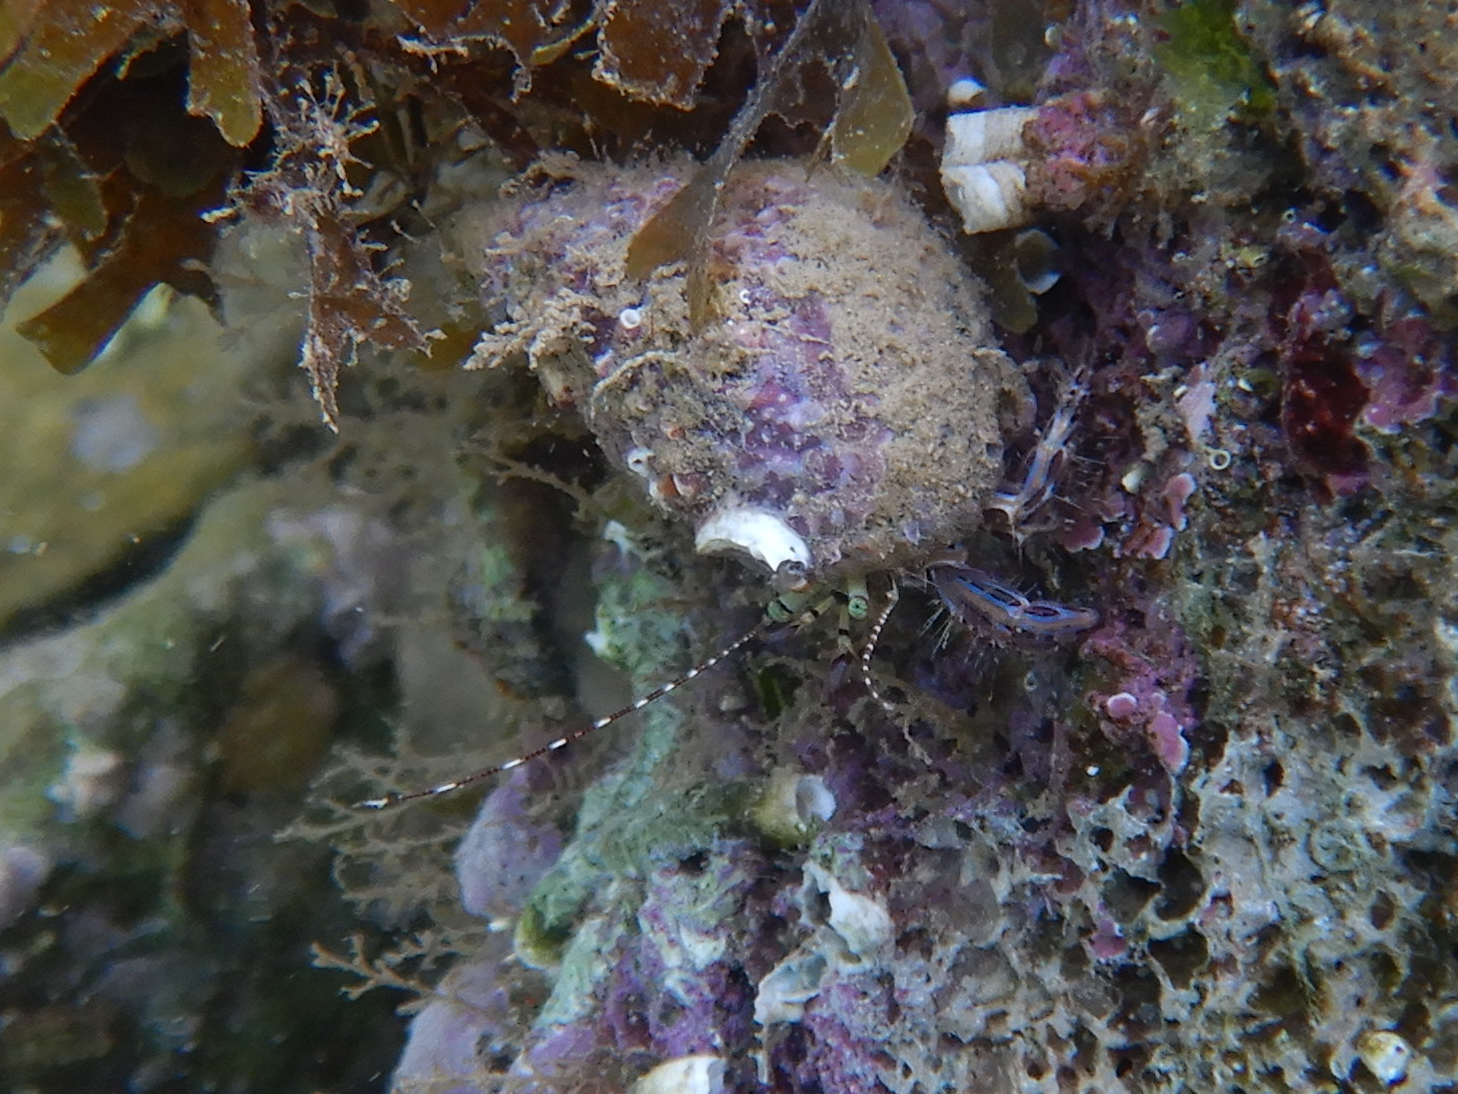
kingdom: Animalia
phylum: Arthropoda
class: Malacostraca
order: Decapoda
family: Paguridae
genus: Pagurus
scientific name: Pagurus anachoretus
